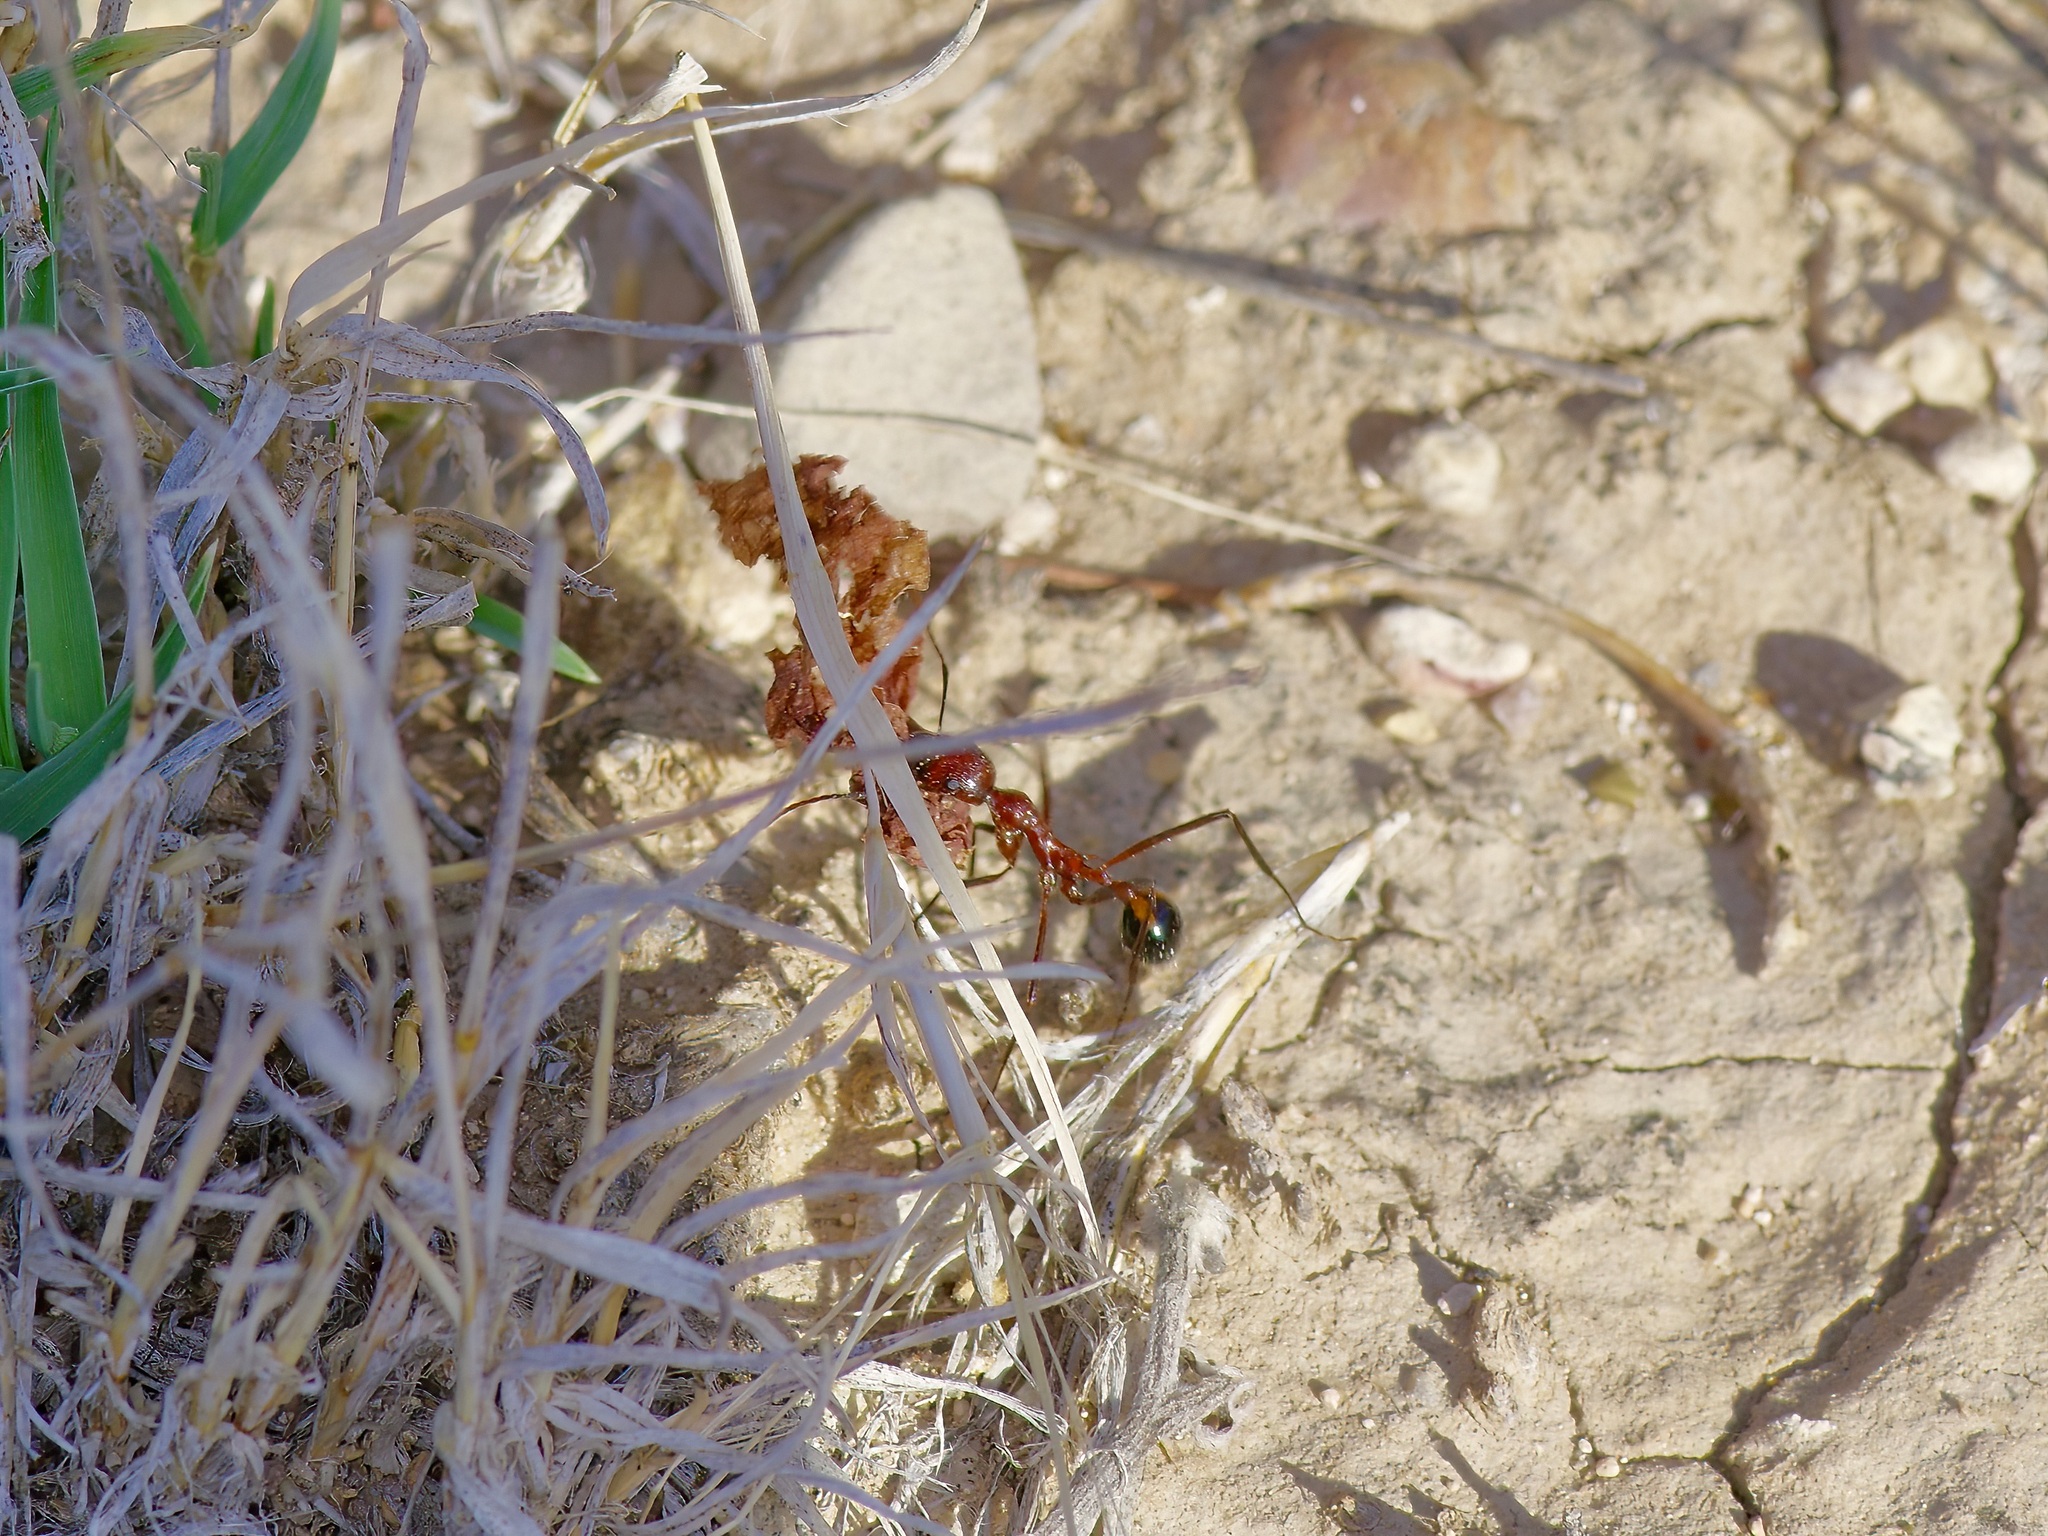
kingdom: Animalia
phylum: Arthropoda
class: Insecta
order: Hymenoptera
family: Formicidae
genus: Novomessor
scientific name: Novomessor cockerelli
